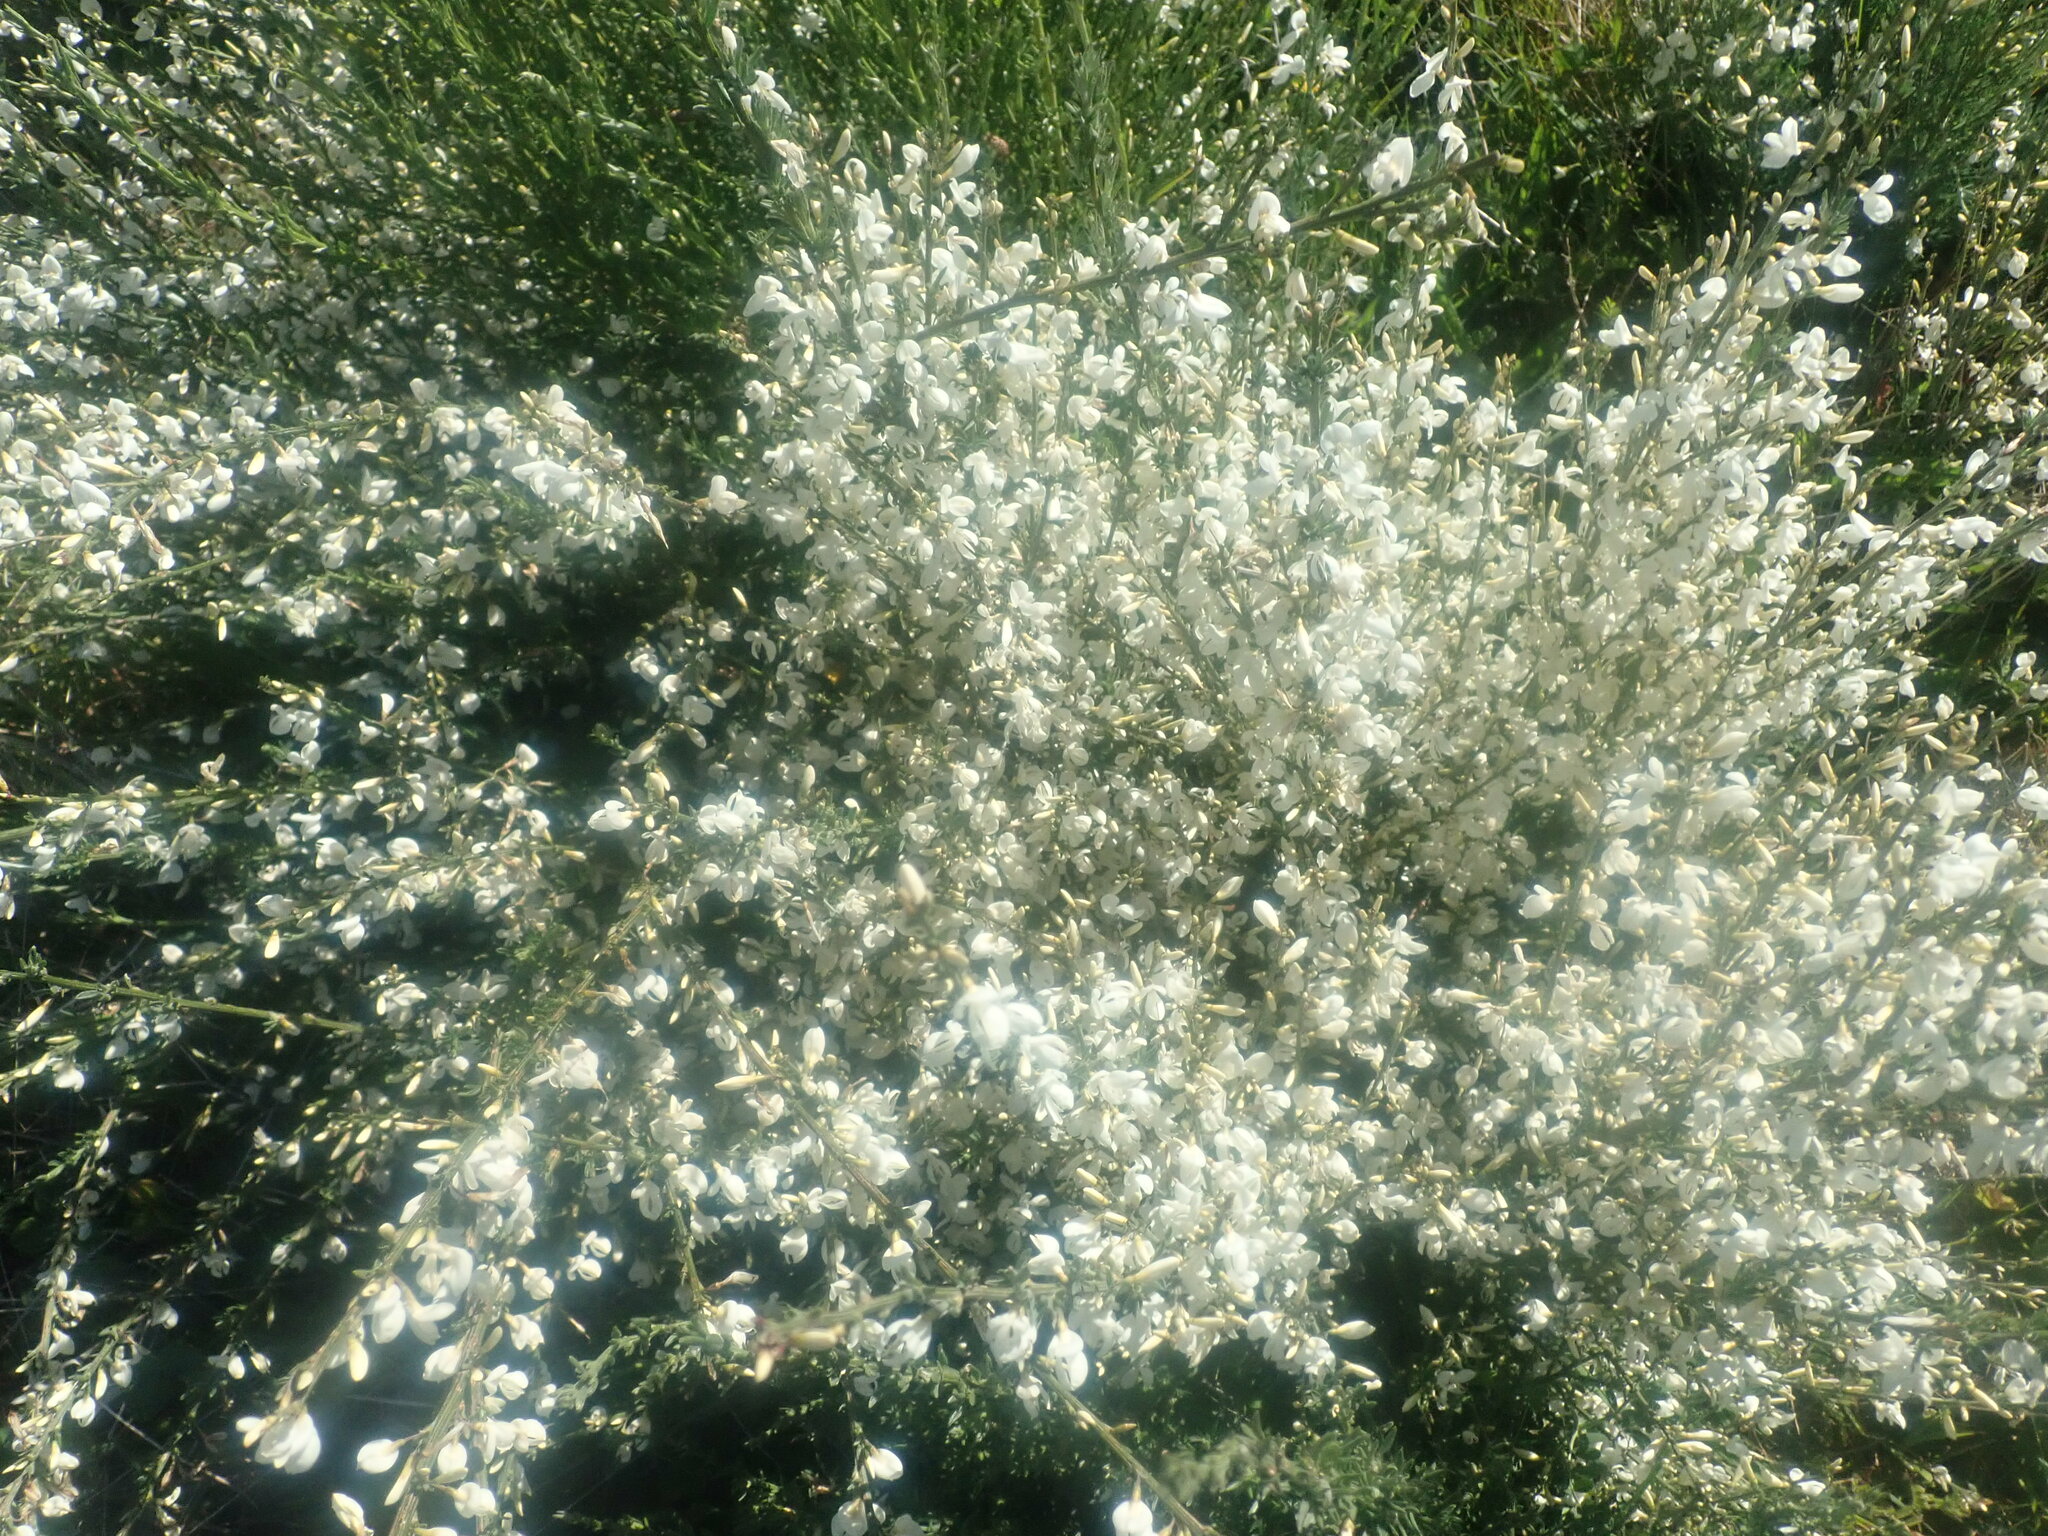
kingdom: Plantae
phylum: Tracheophyta
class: Magnoliopsida
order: Fabales
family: Fabaceae
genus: Cytisus
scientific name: Cytisus multiflorus
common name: White broom
